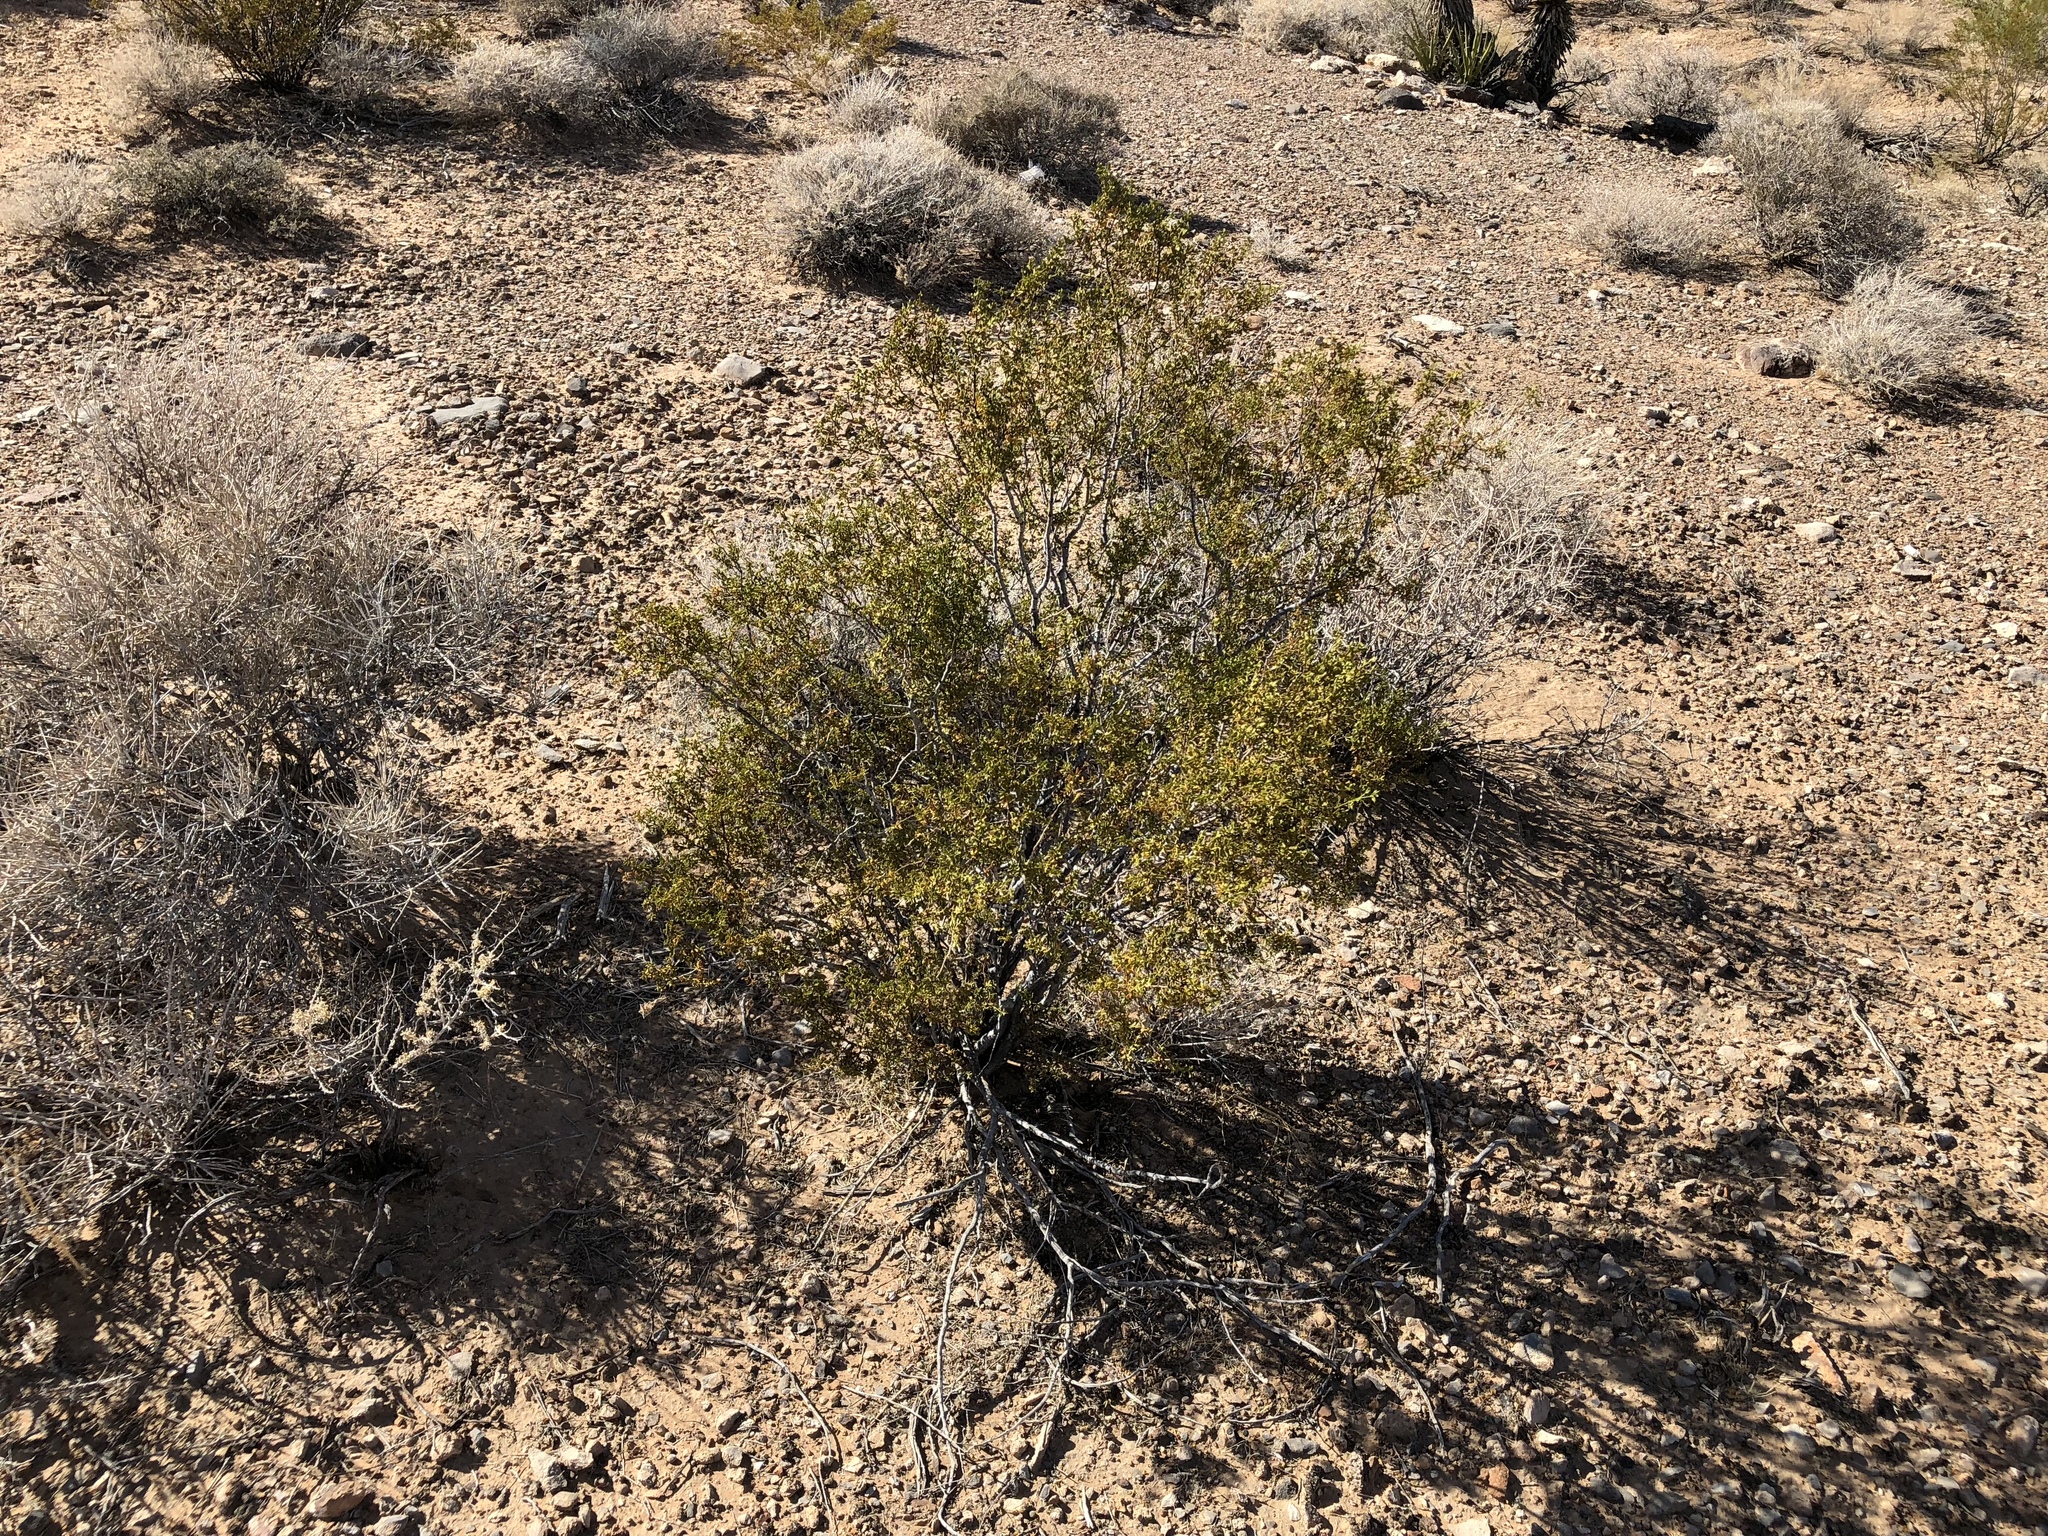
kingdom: Plantae
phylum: Tracheophyta
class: Magnoliopsida
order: Zygophyllales
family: Zygophyllaceae
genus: Larrea
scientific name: Larrea tridentata
